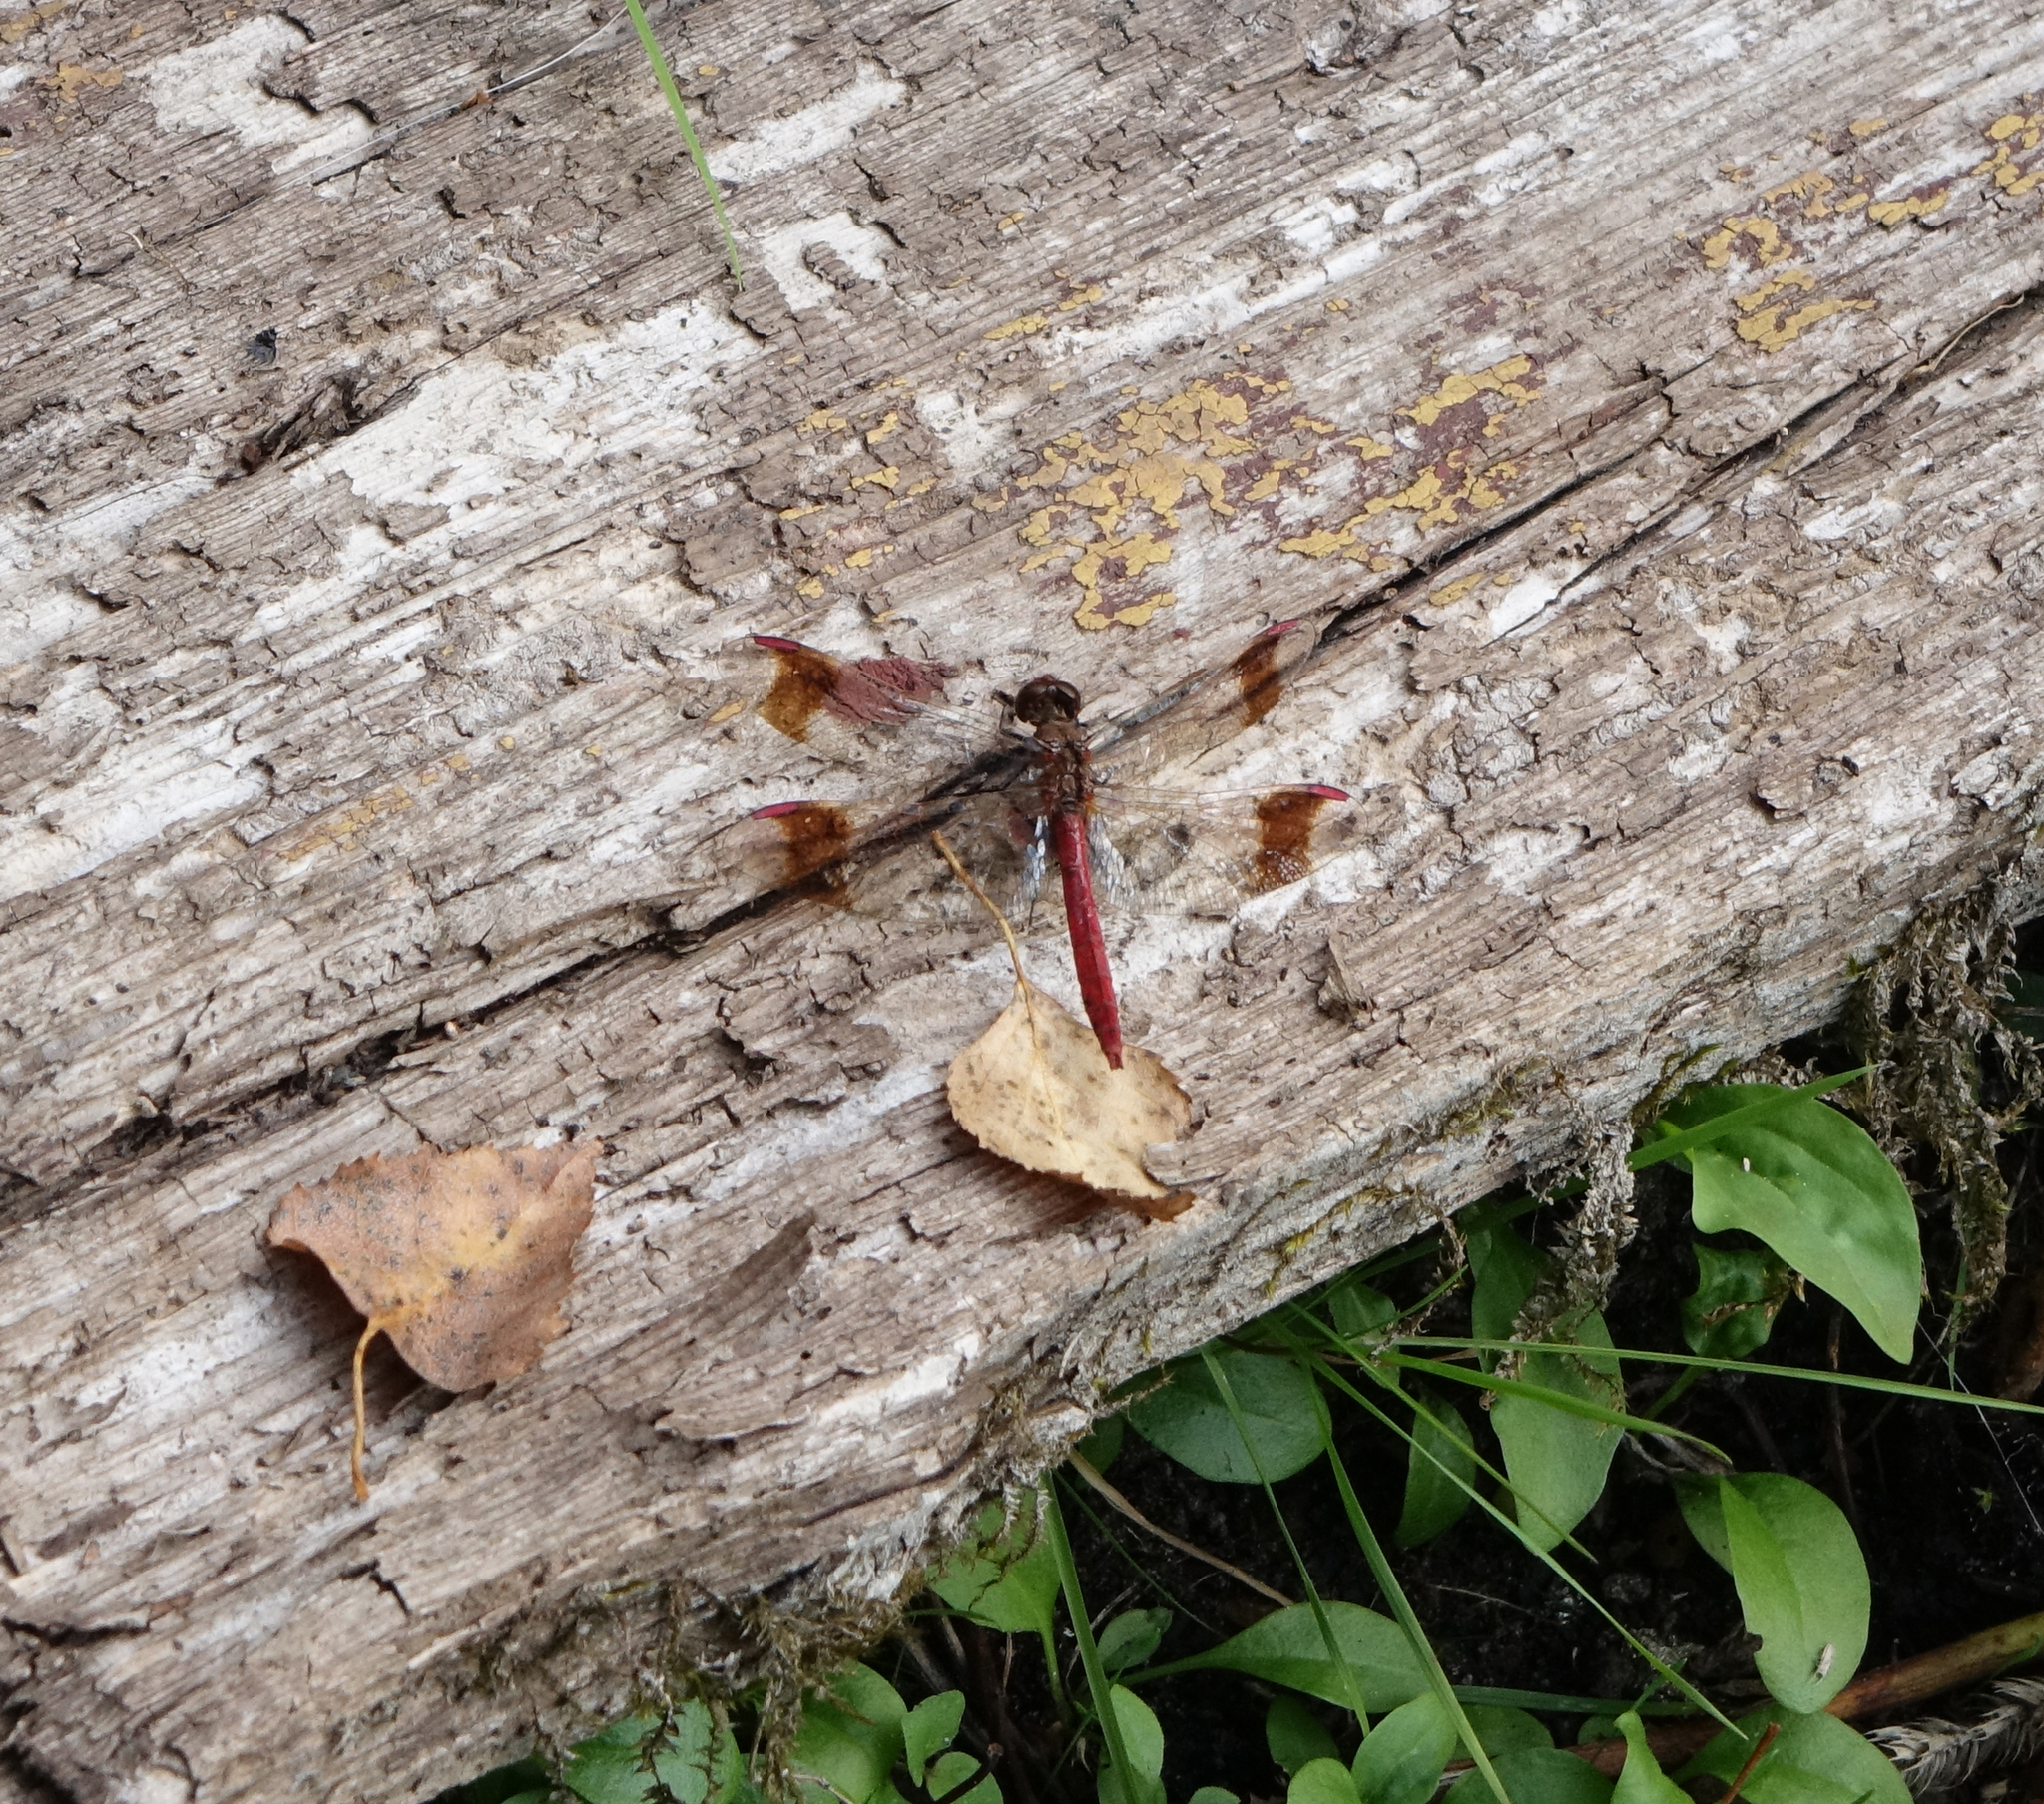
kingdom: Animalia
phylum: Arthropoda
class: Insecta
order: Odonata
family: Libellulidae
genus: Sympetrum
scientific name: Sympetrum pedemontanum
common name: Banded darter
